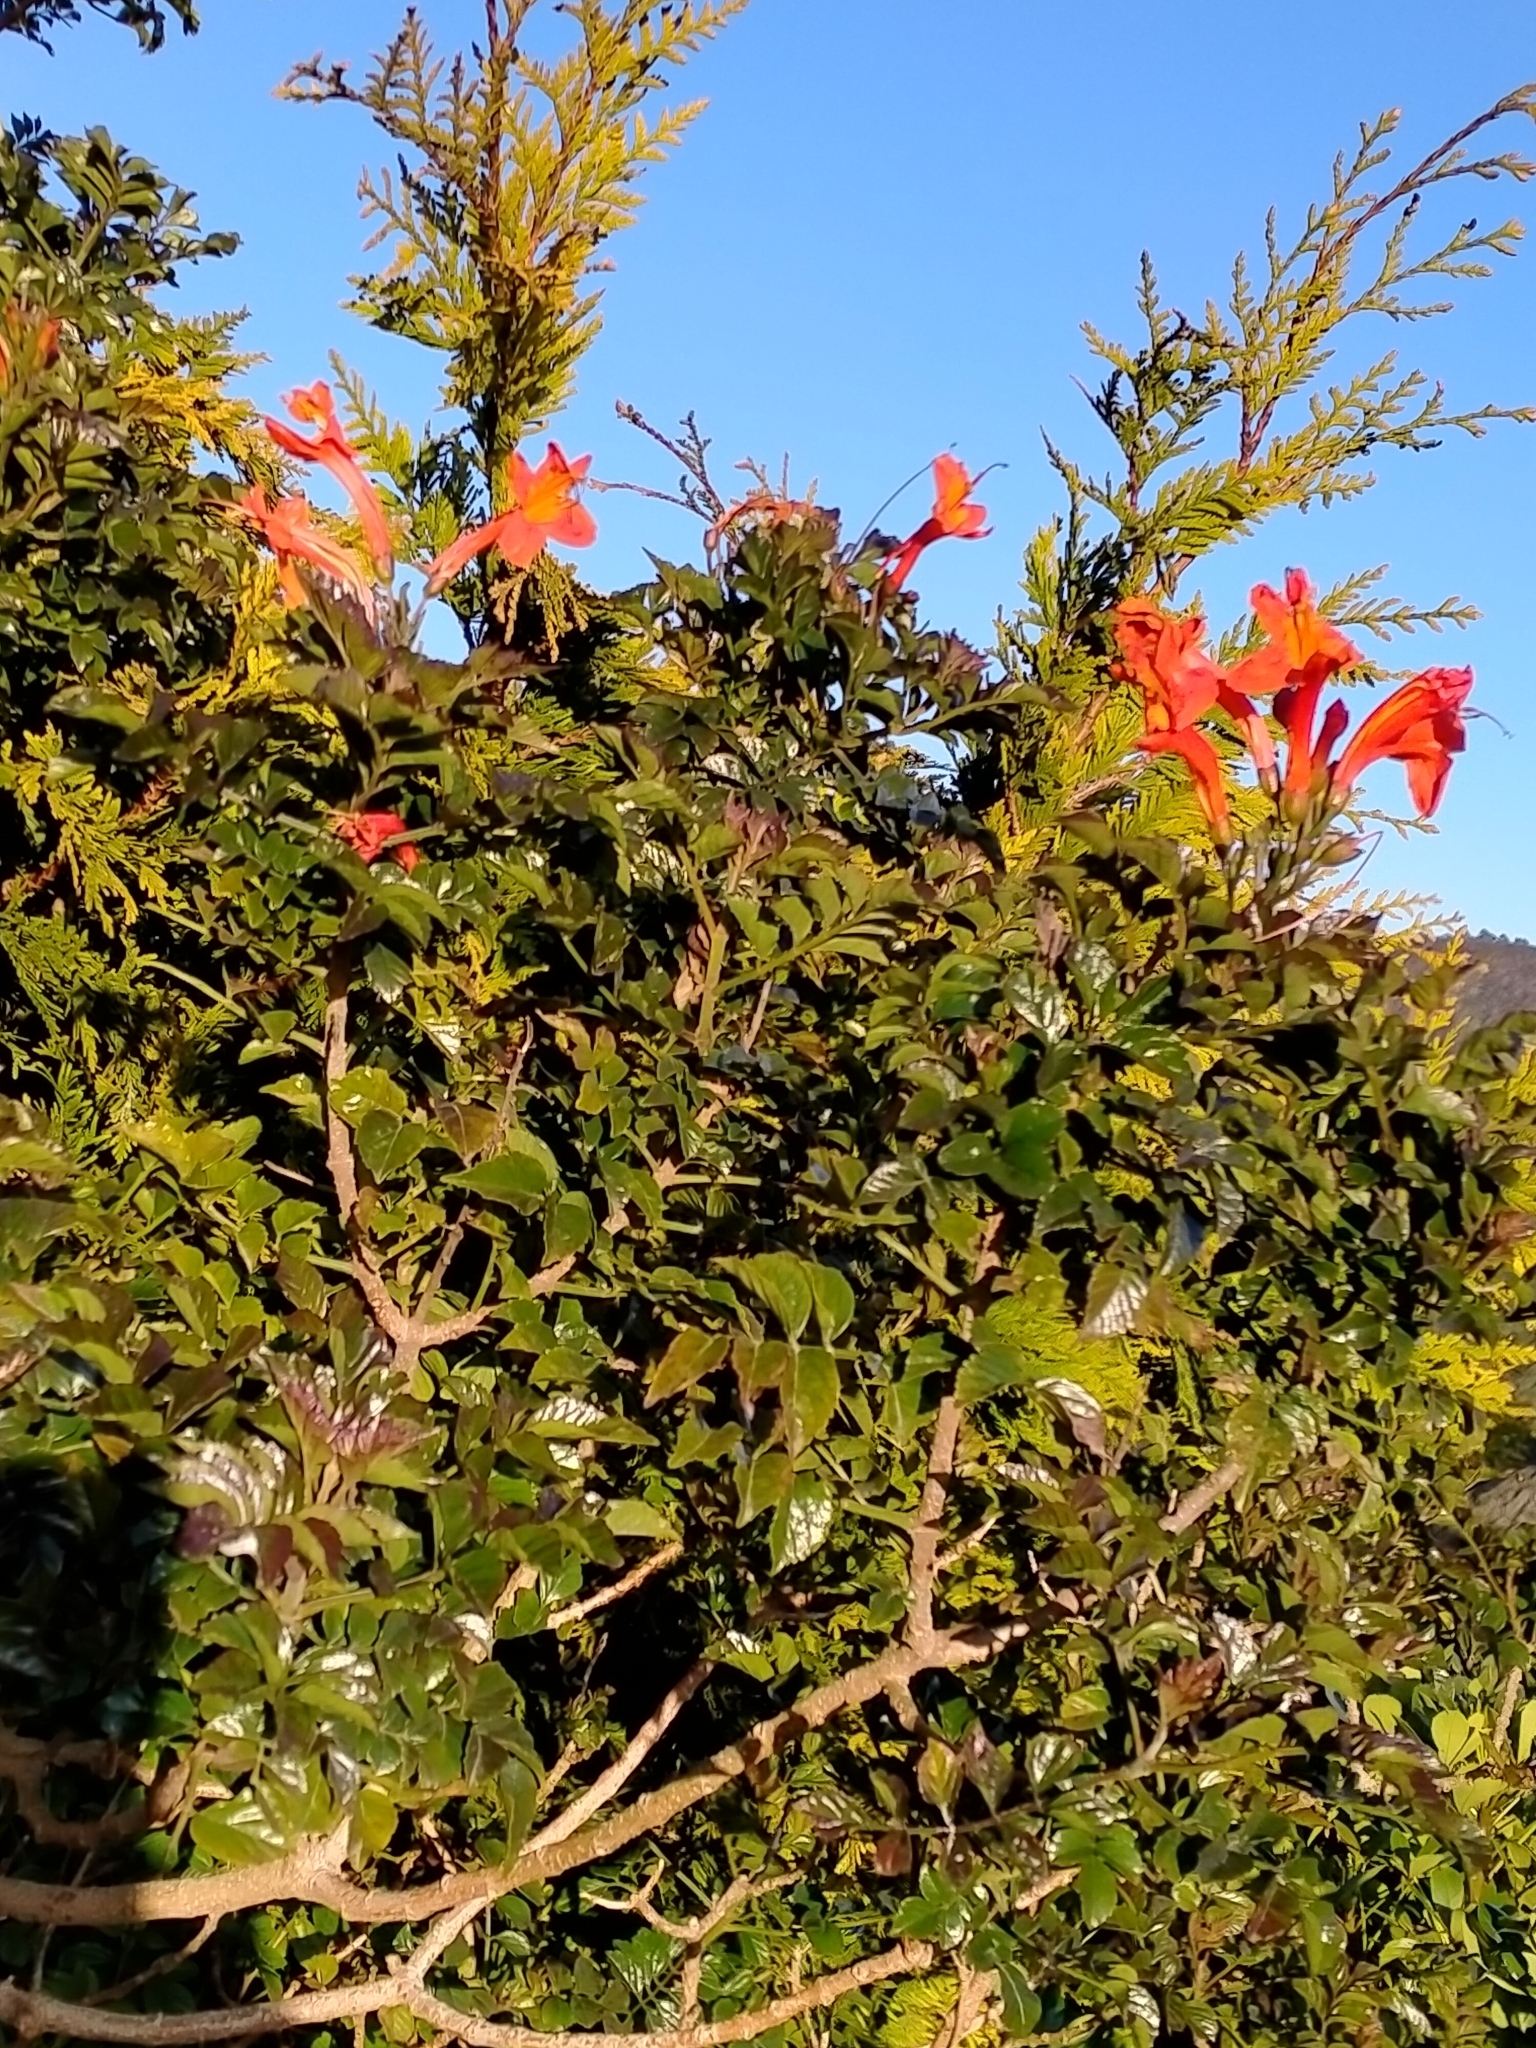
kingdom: Plantae
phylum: Tracheophyta
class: Magnoliopsida
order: Lamiales
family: Bignoniaceae
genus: Tecomaria
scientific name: Tecomaria capensis
